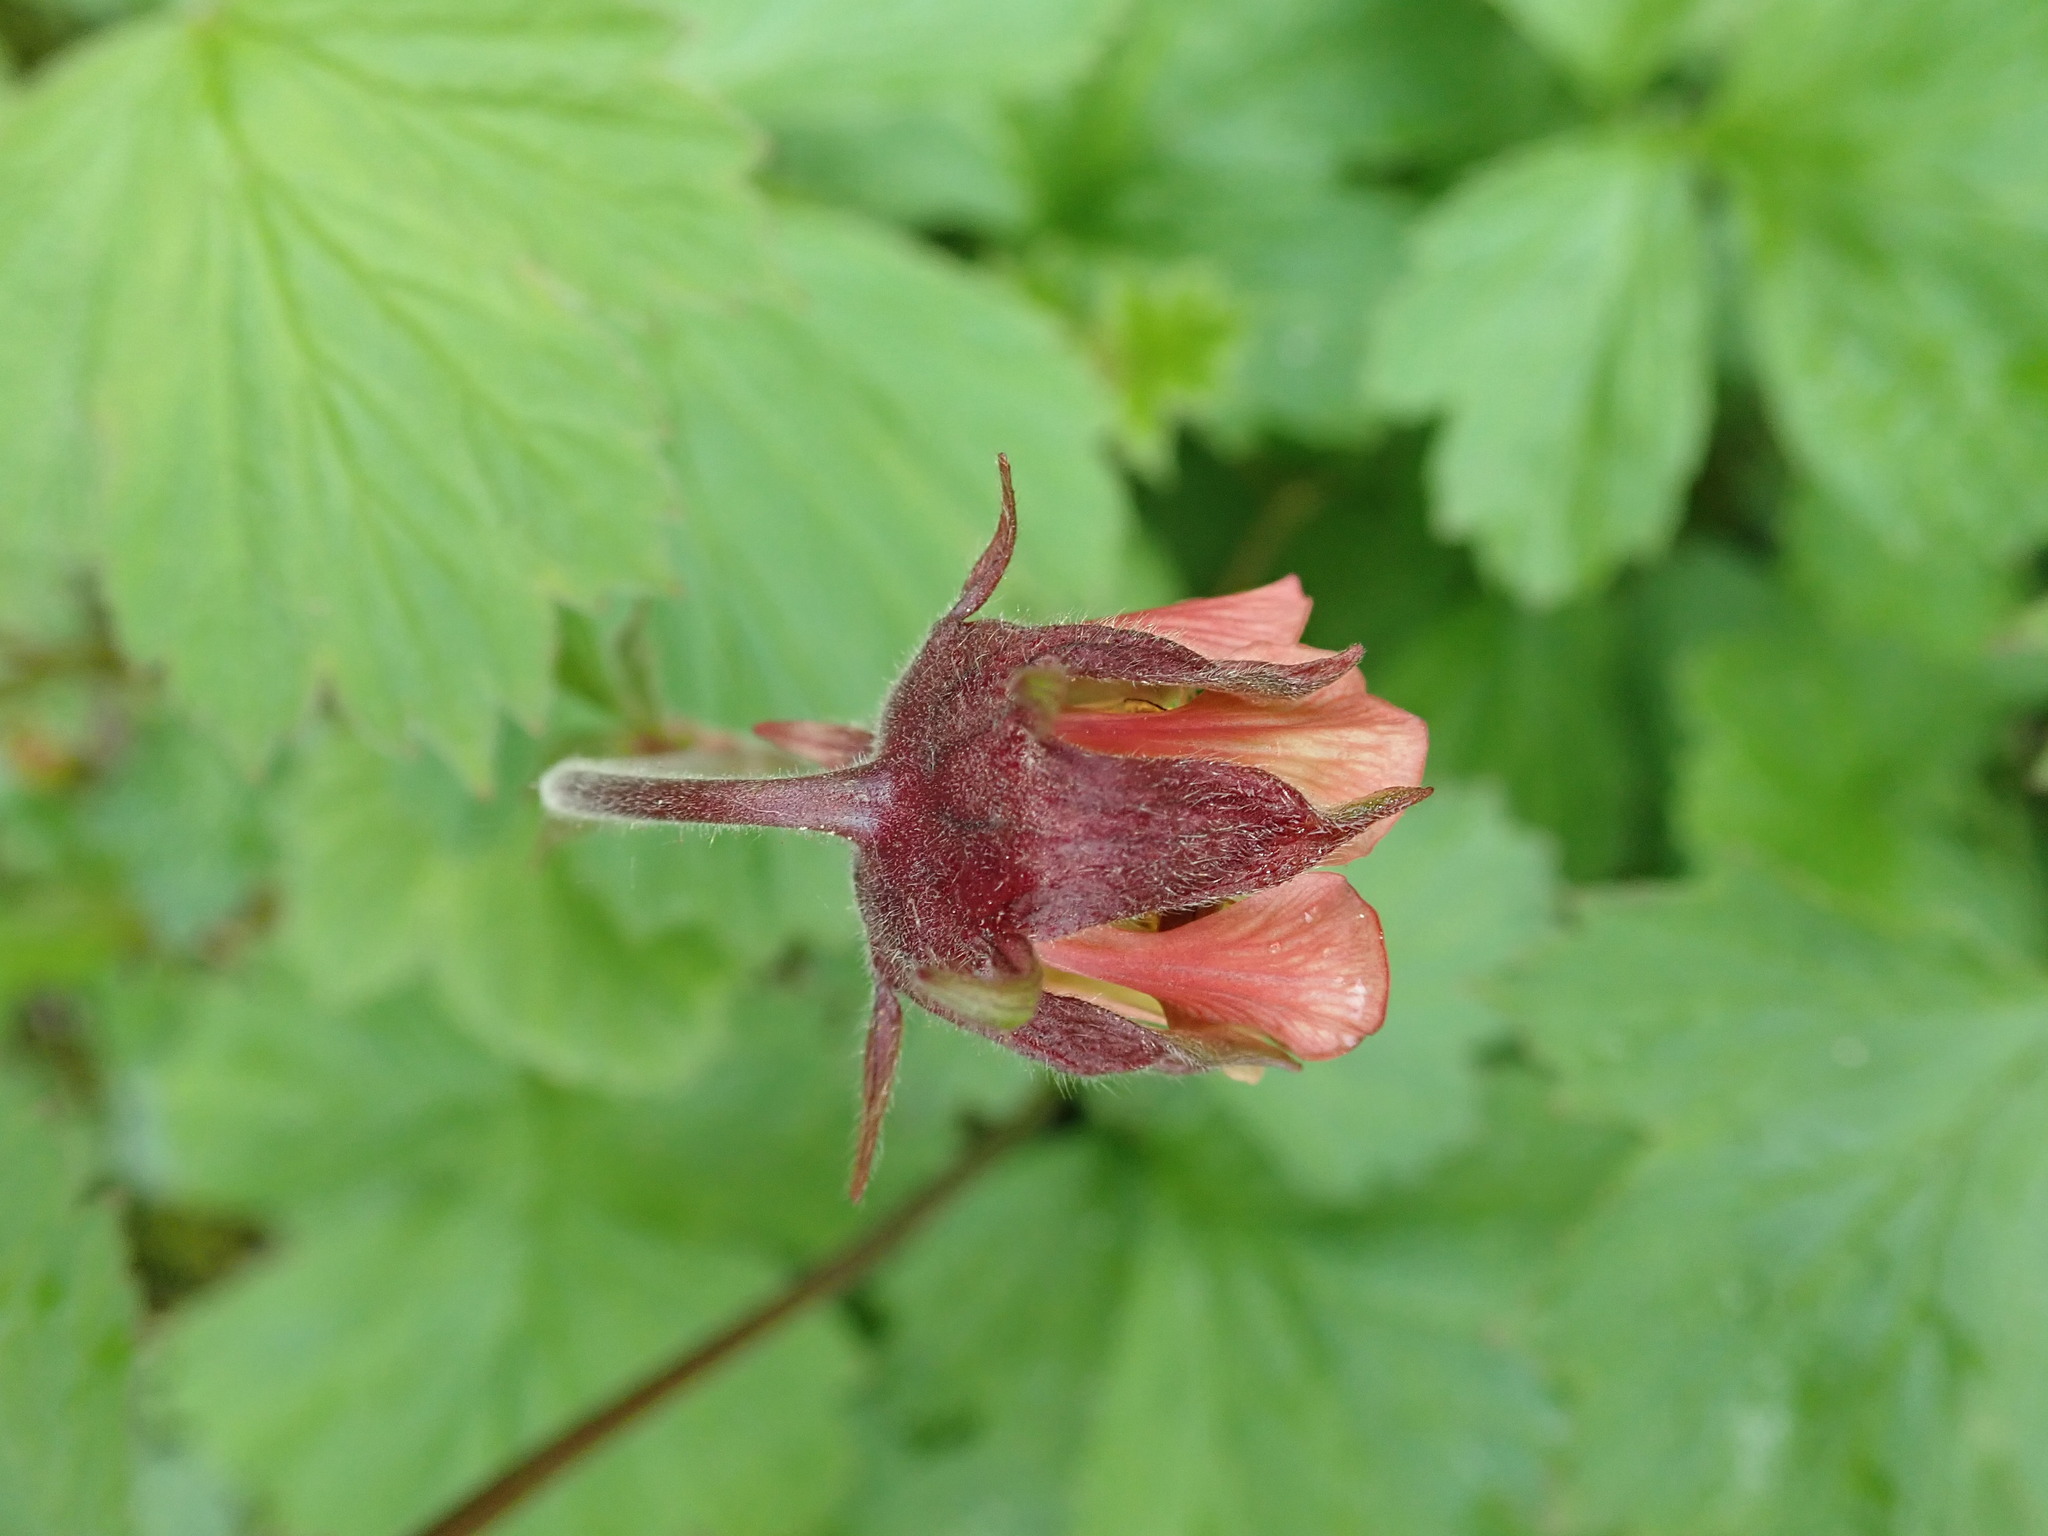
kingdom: Plantae
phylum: Tracheophyta
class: Magnoliopsida
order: Rosales
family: Rosaceae
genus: Geum
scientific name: Geum rivale
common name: Water avens
